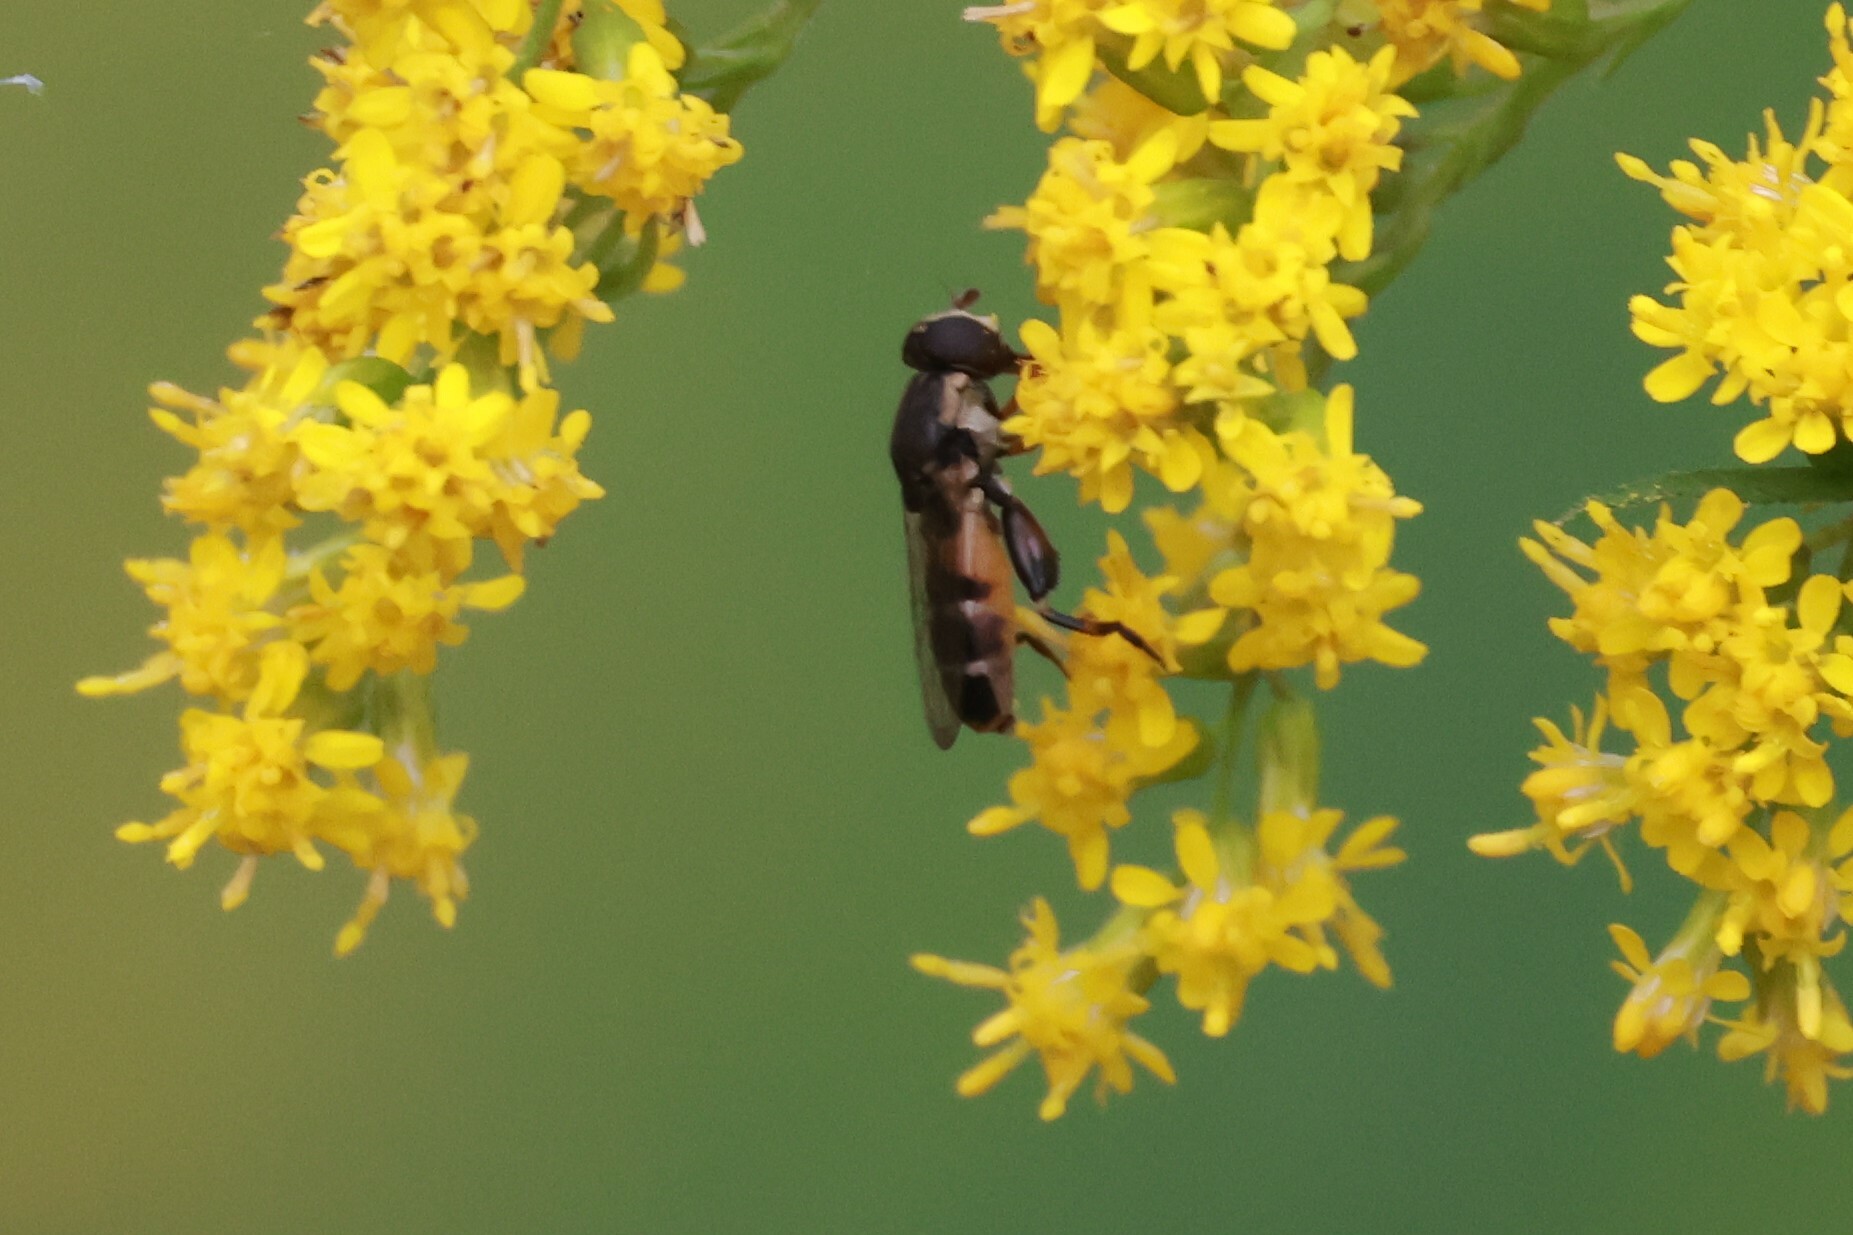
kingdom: Animalia
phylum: Arthropoda
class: Insecta
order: Diptera
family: Syrphidae
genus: Syritta
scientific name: Syritta pipiens
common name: Hover fly
